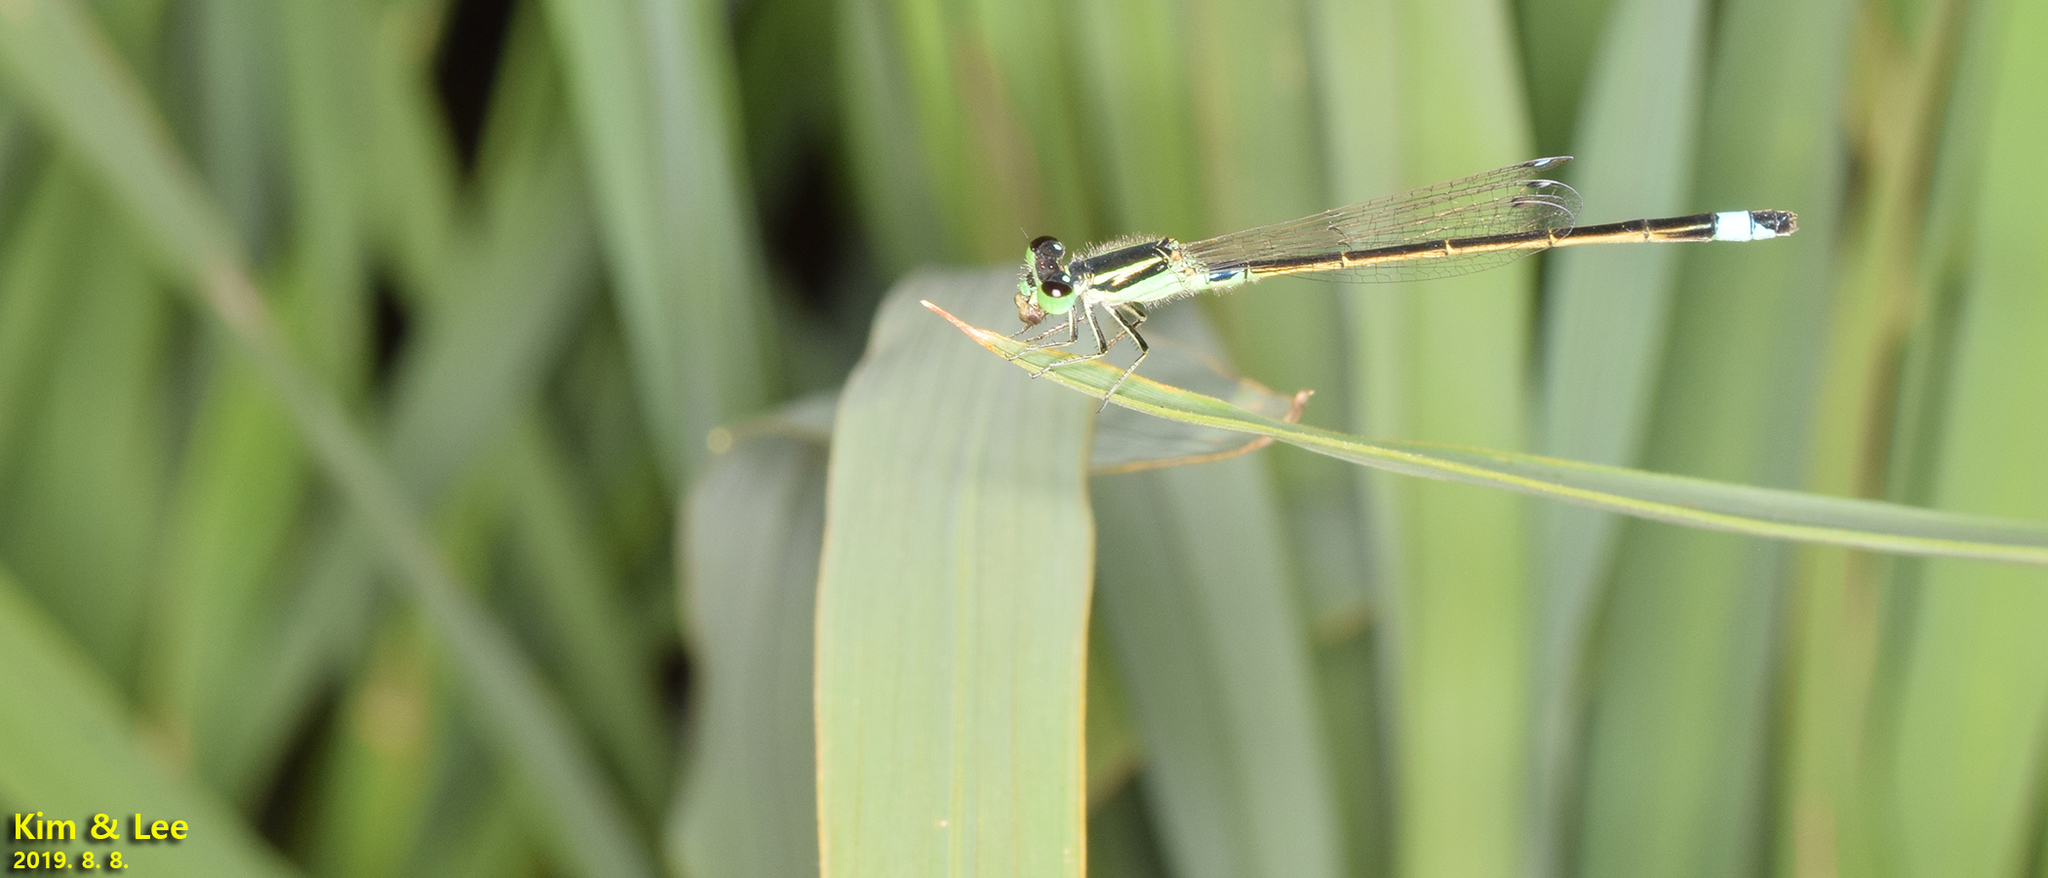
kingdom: Animalia
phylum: Arthropoda
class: Insecta
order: Odonata
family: Coenagrionidae
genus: Ischnura
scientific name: Ischnura senegalensis
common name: Tropical bluetail
